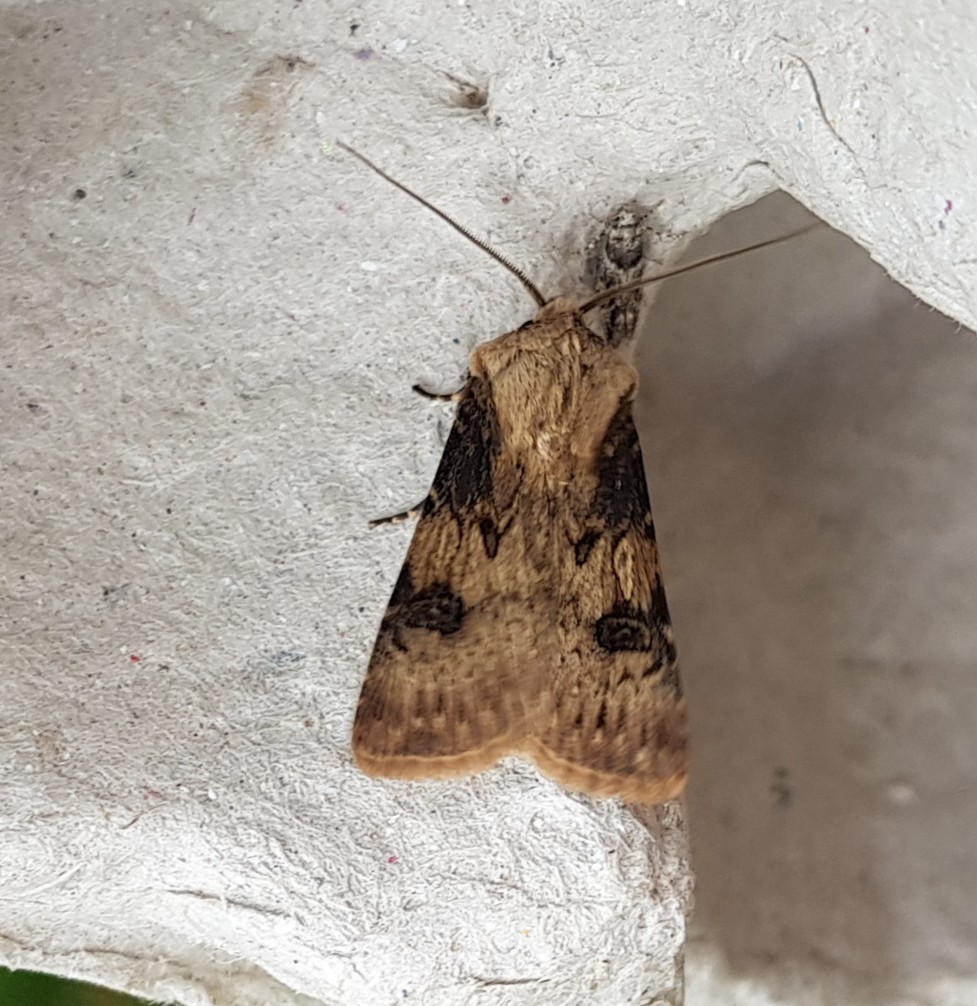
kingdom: Animalia
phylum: Arthropoda
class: Insecta
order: Lepidoptera
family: Noctuidae
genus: Agrotis
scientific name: Agrotis puta
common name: Shuttle-shaped dart
